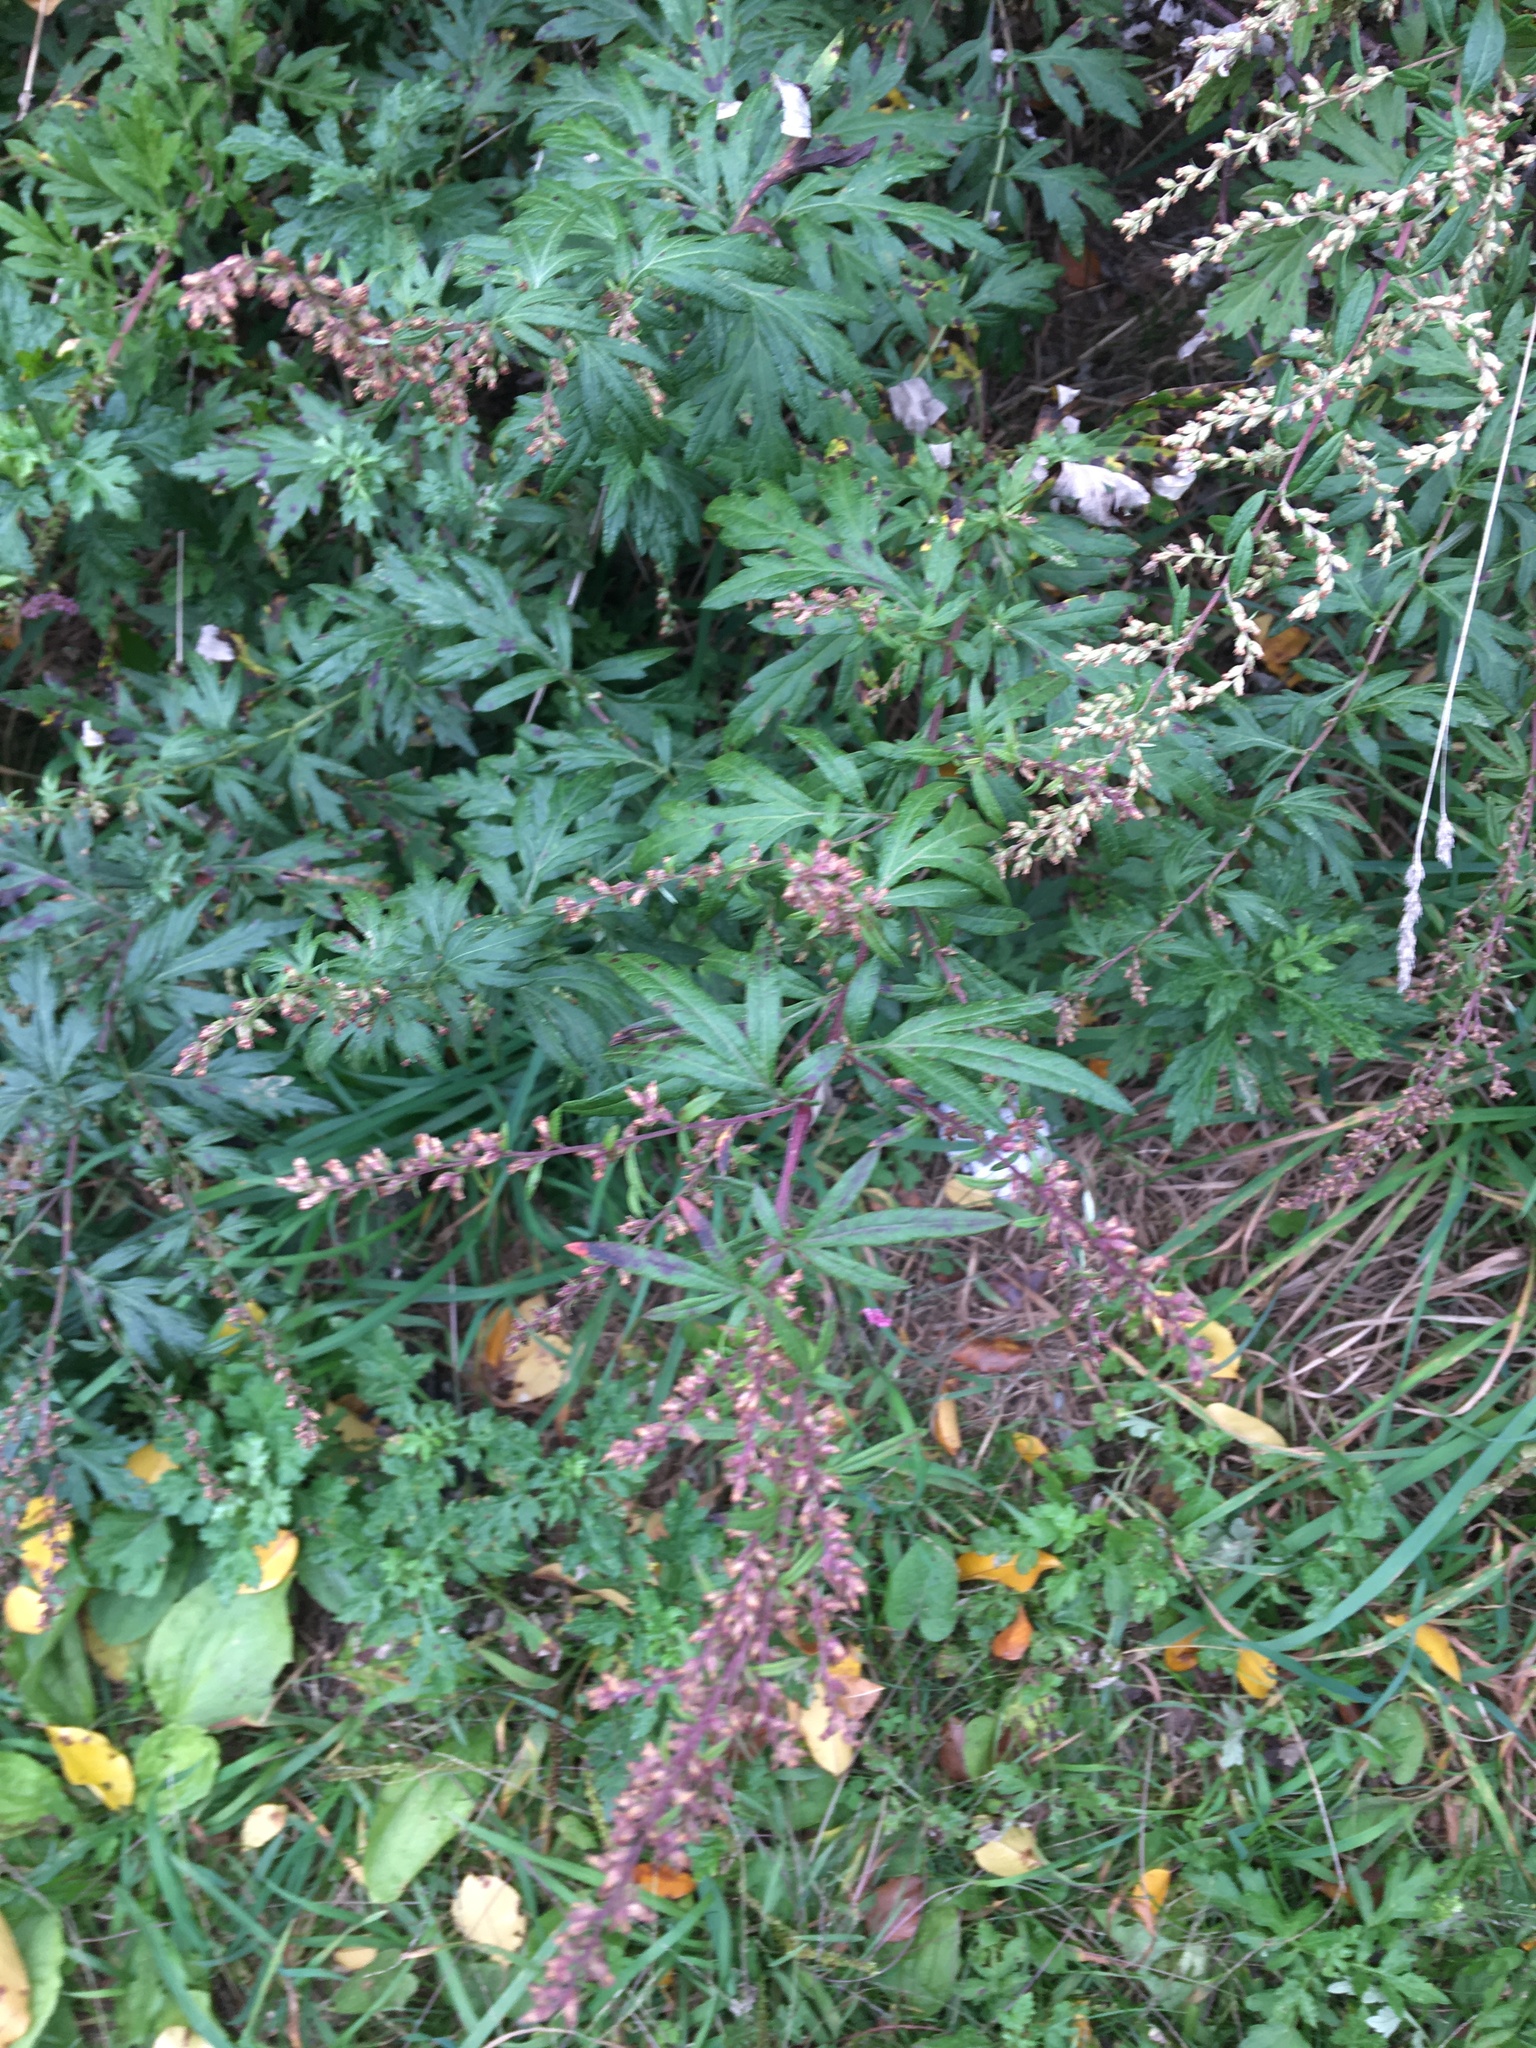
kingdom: Plantae
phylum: Tracheophyta
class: Magnoliopsida
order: Asterales
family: Asteraceae
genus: Artemisia
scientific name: Artemisia vulgaris
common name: Mugwort
